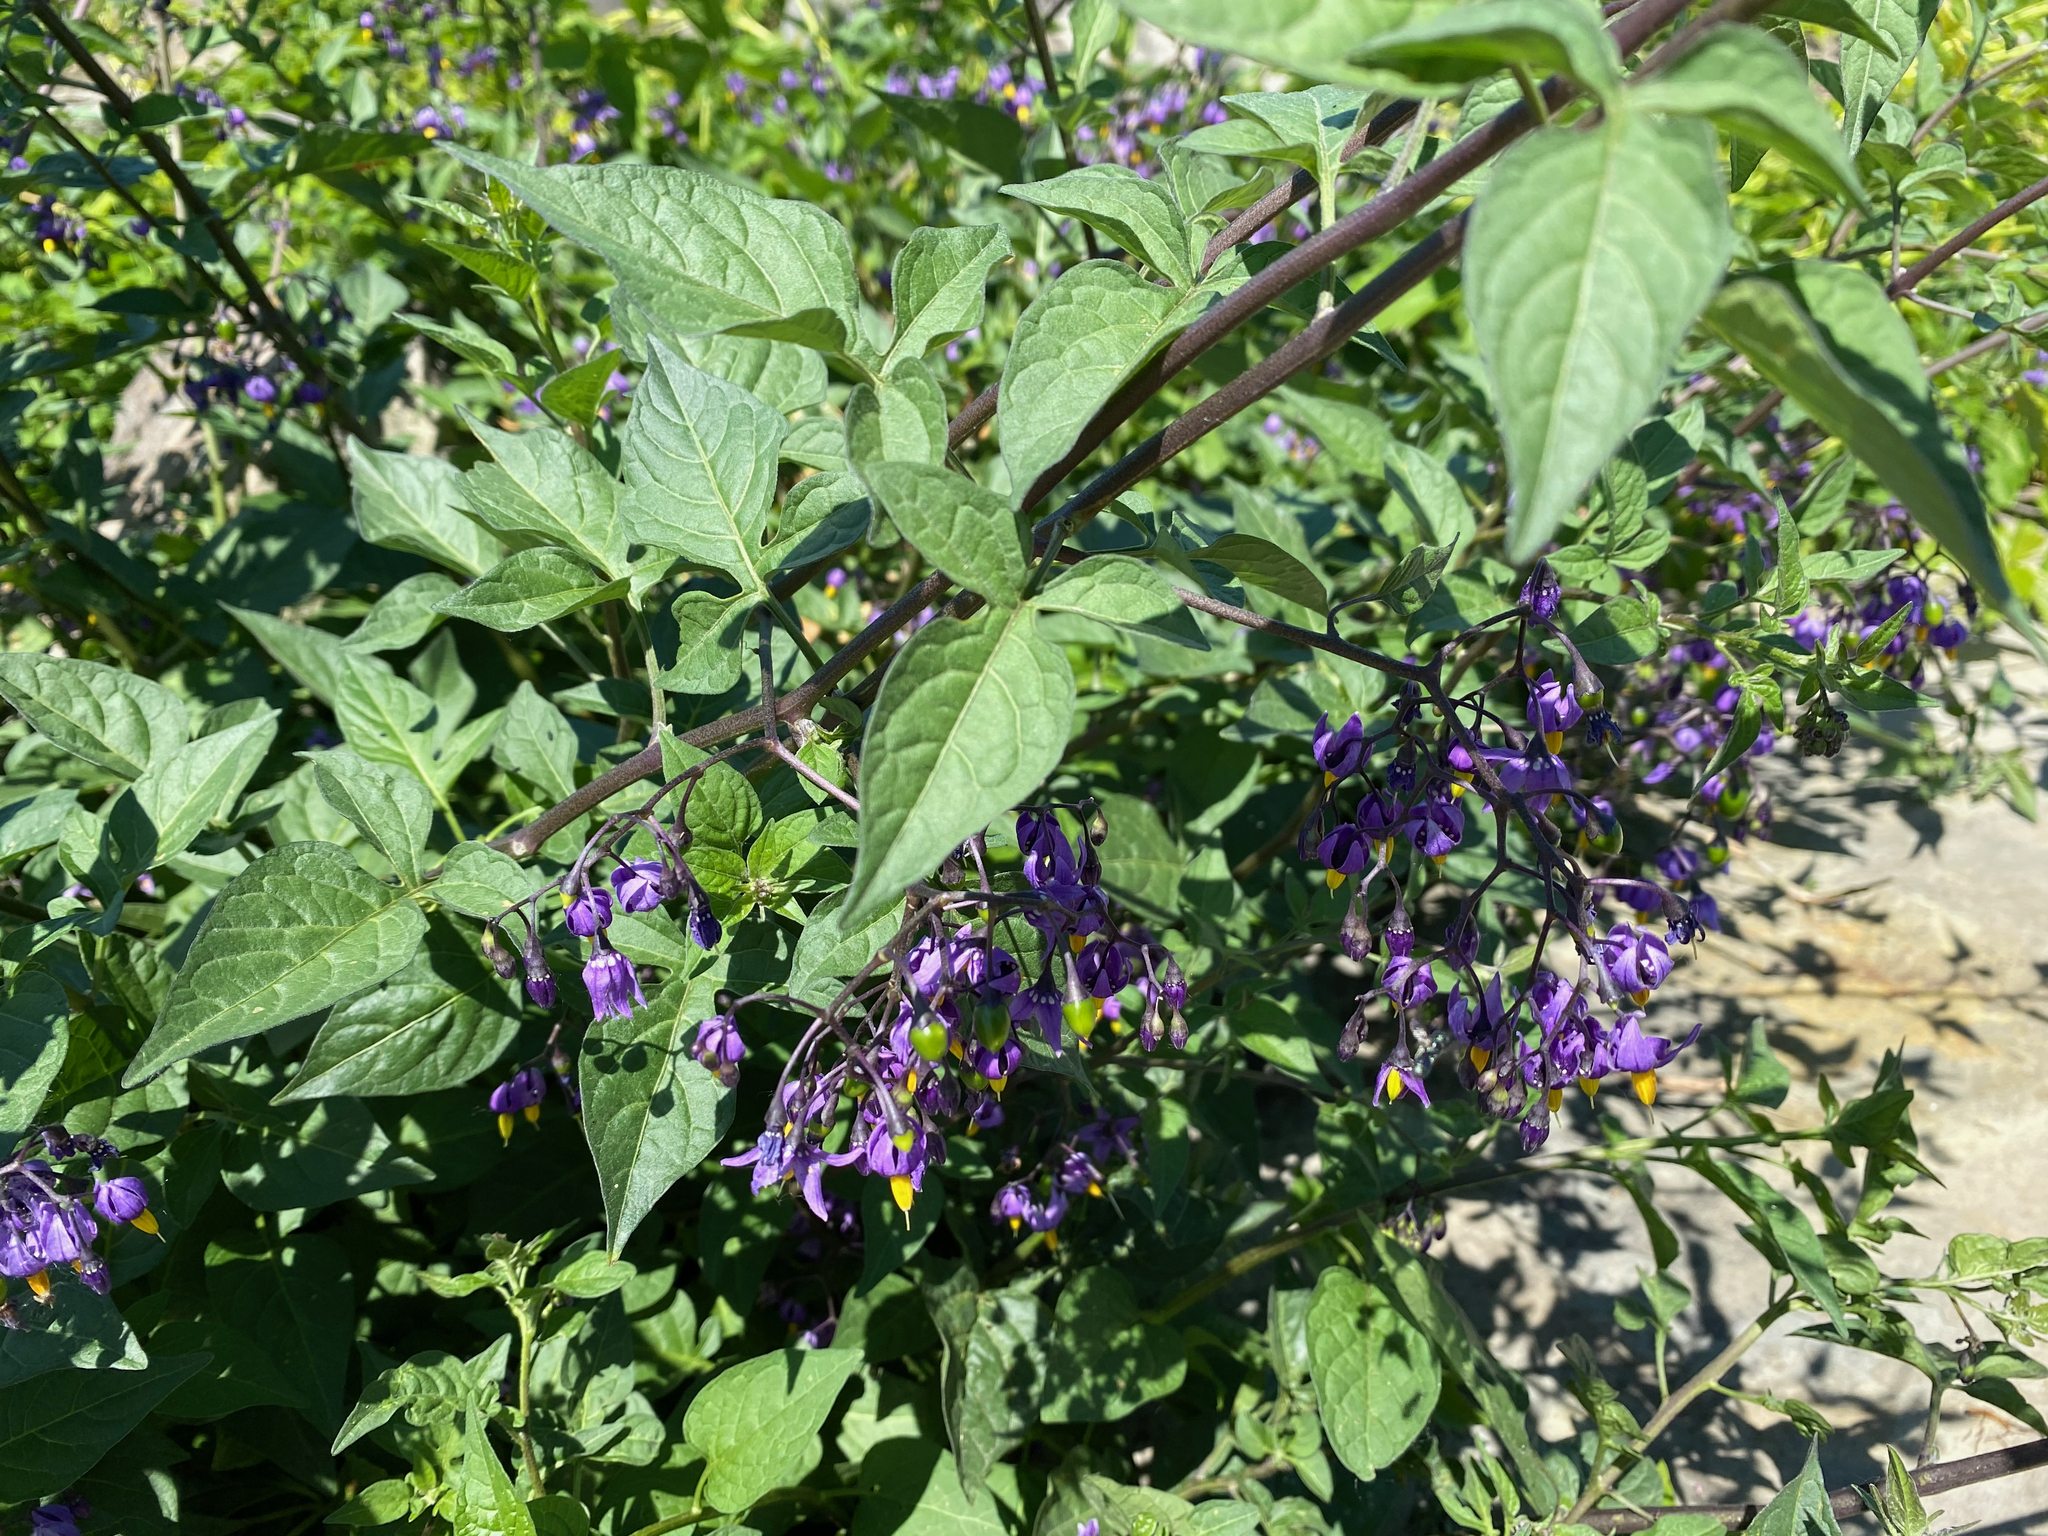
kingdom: Plantae
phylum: Tracheophyta
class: Magnoliopsida
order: Solanales
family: Solanaceae
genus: Solanum
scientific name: Solanum dulcamara
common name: Climbing nightshade
